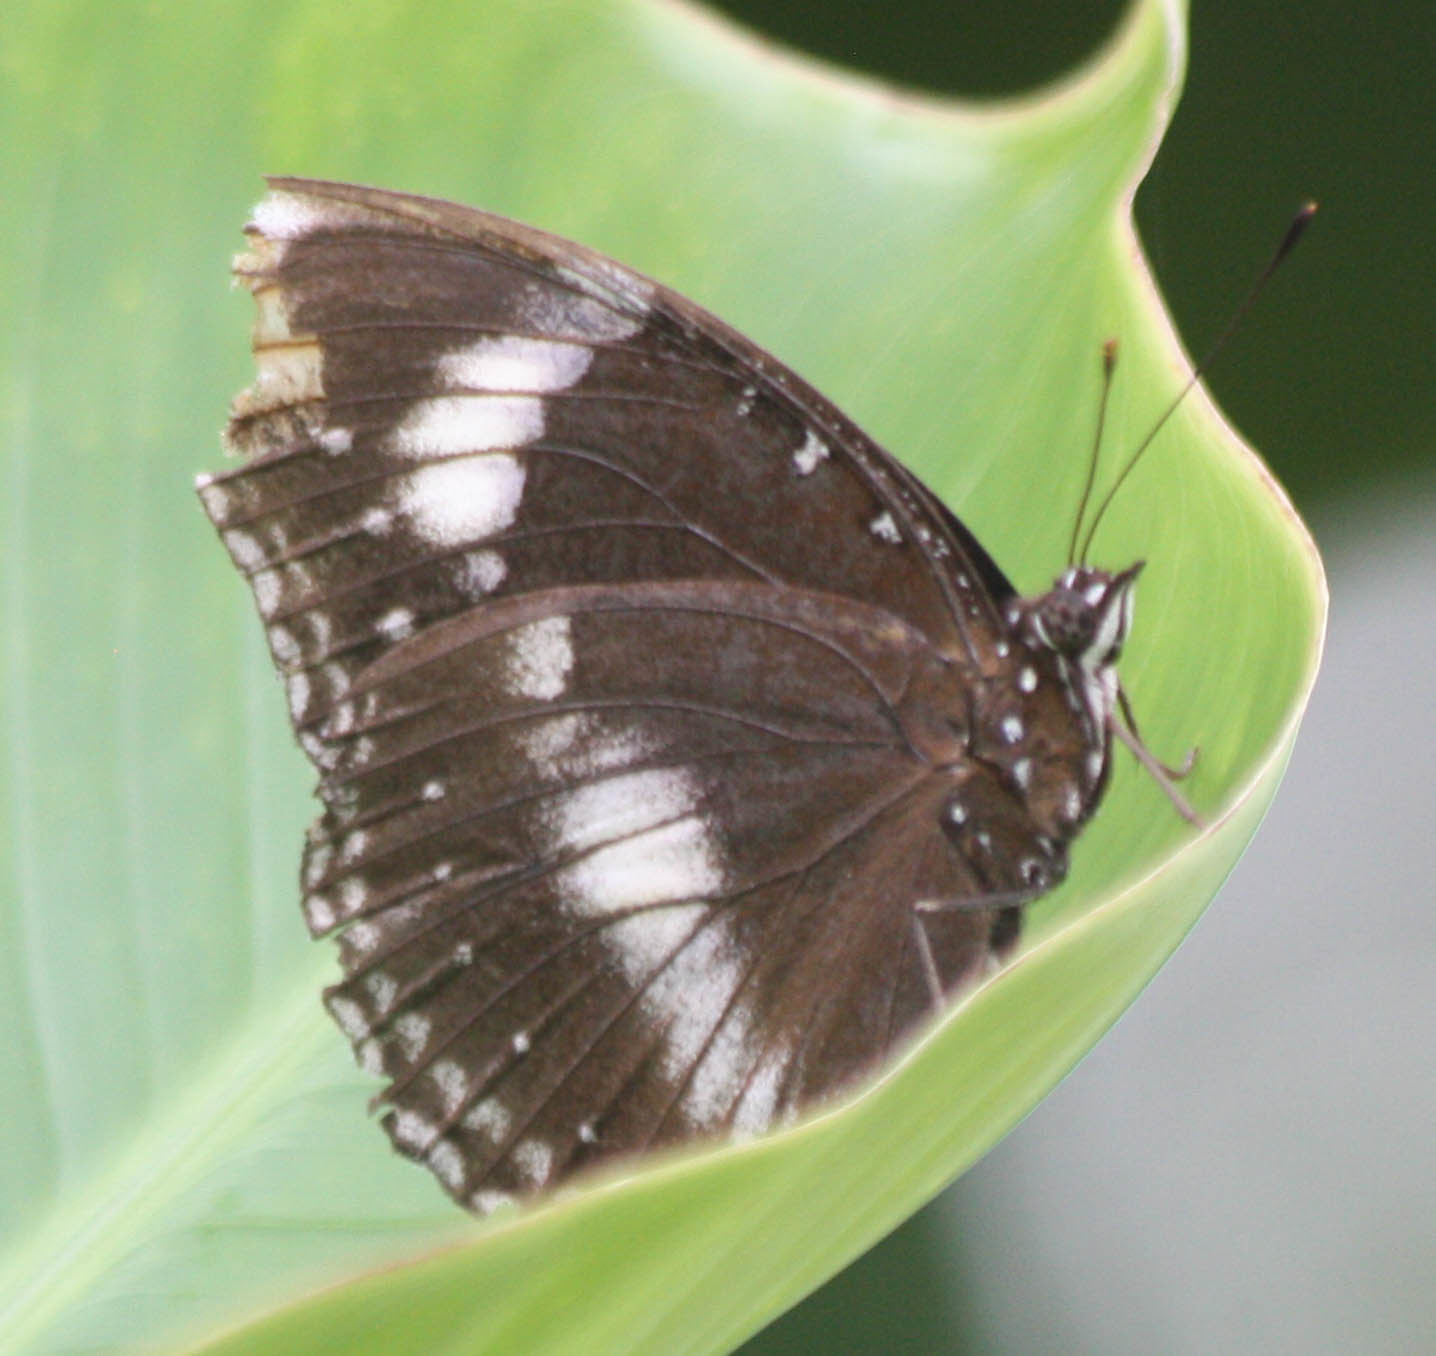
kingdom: Animalia
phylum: Arthropoda
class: Insecta
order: Lepidoptera
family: Nymphalidae
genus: Hypolimnas
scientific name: Hypolimnas bolina
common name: Great eggfly
